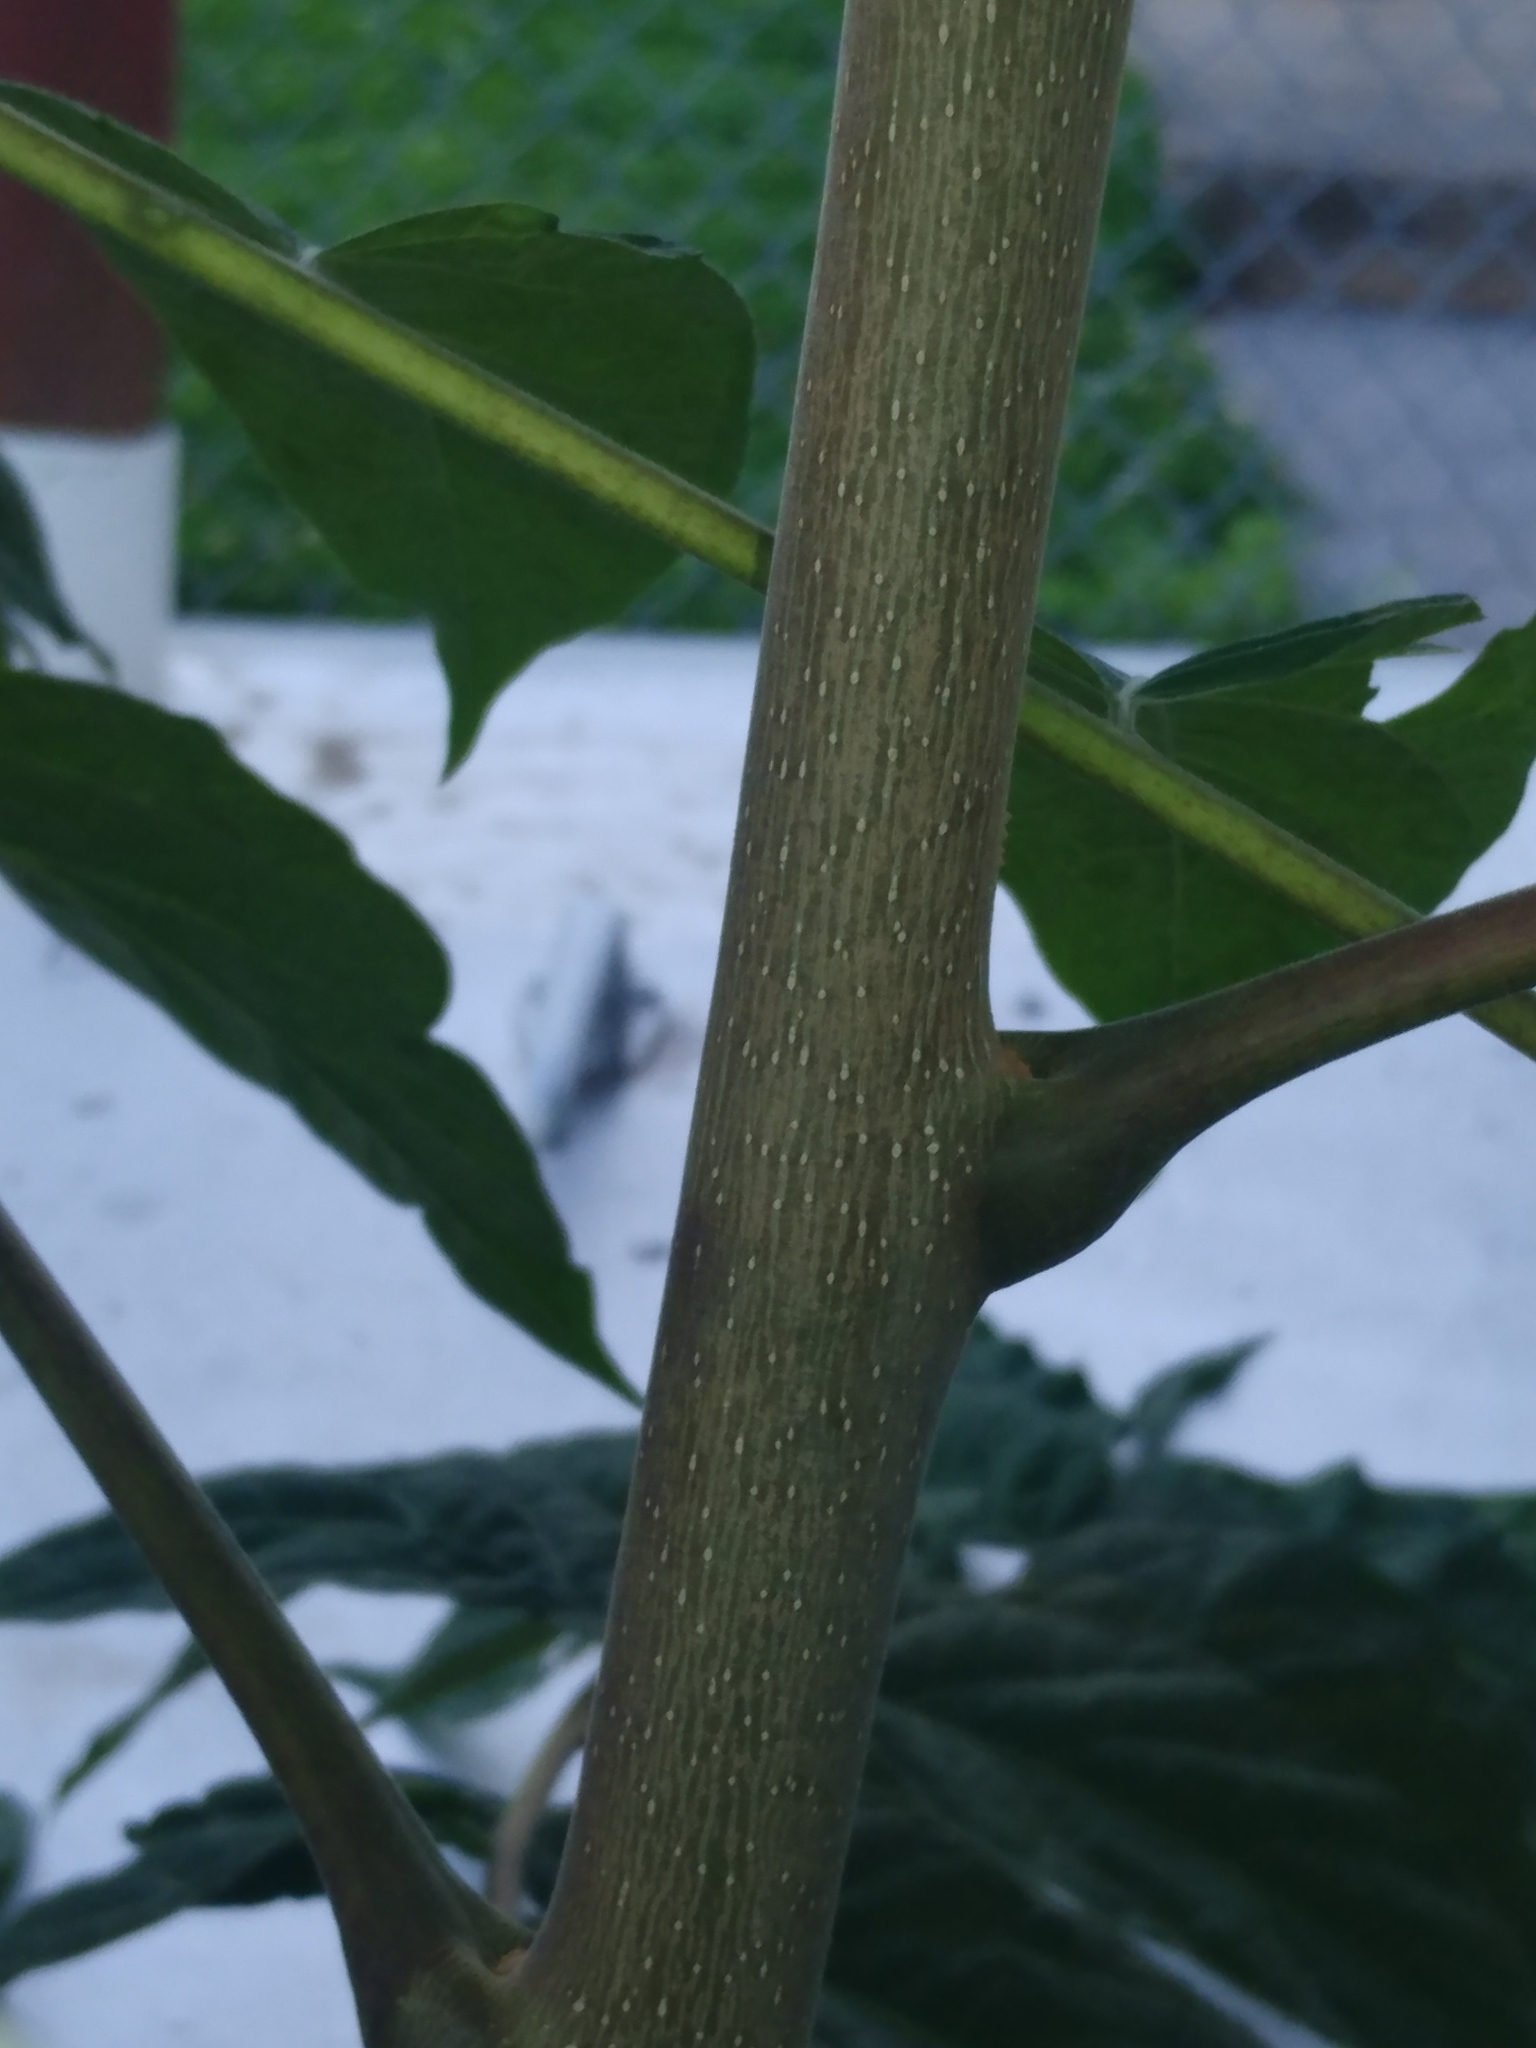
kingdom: Plantae
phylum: Tracheophyta
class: Magnoliopsida
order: Sapindales
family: Simaroubaceae
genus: Ailanthus
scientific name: Ailanthus altissima
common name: Tree-of-heaven
